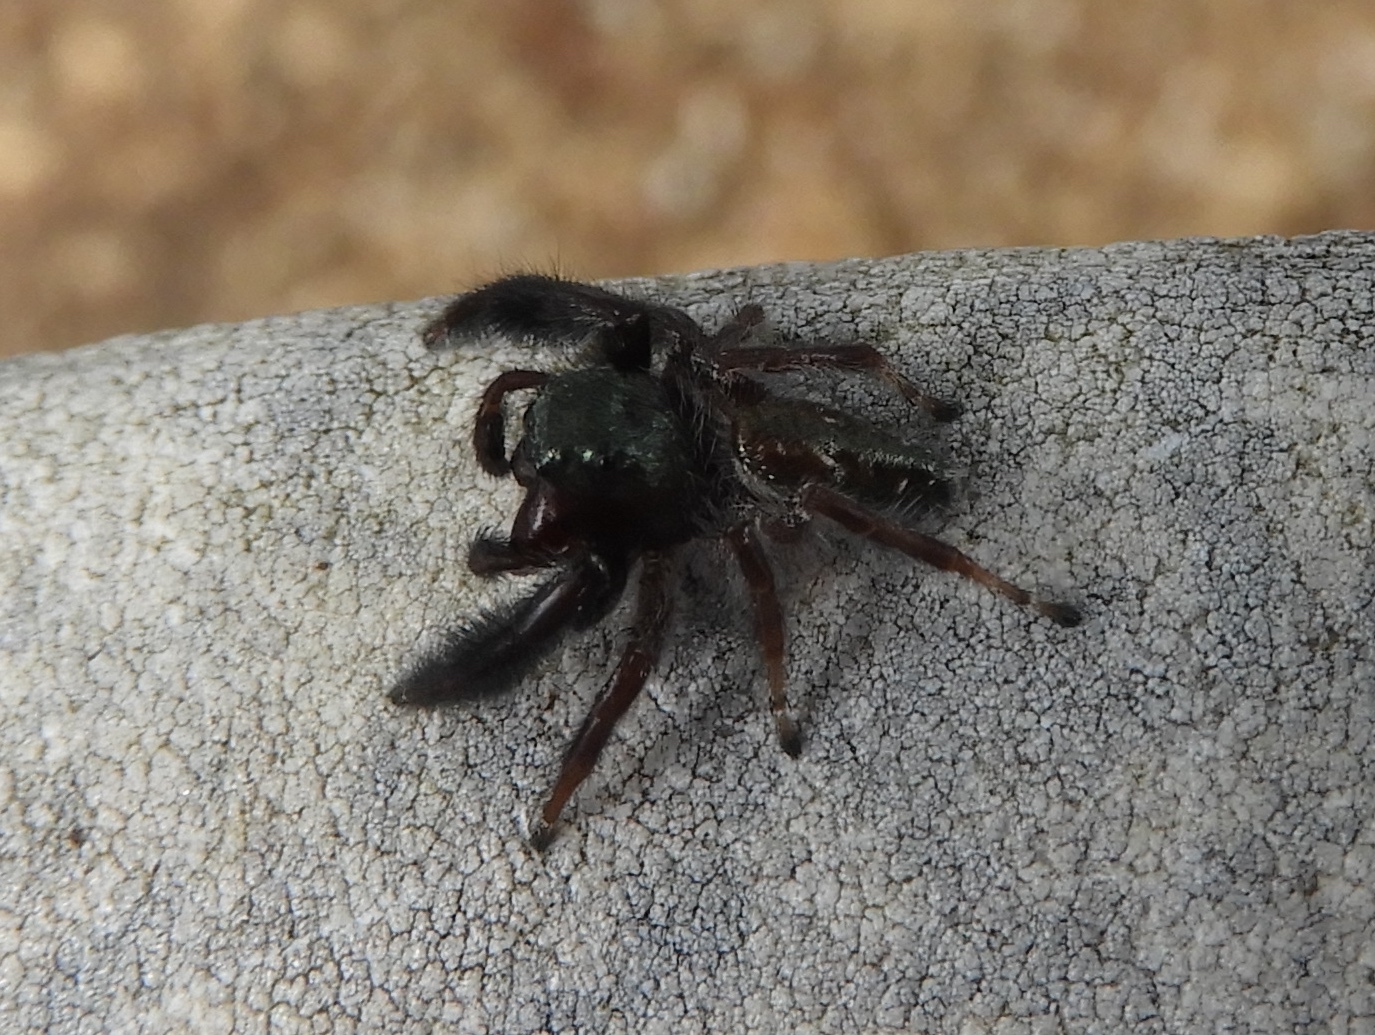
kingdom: Animalia
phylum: Arthropoda
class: Arachnida
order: Araneae
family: Salticidae
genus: Paraphidippus
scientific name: Paraphidippus fartilis
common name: Jumping spiders
